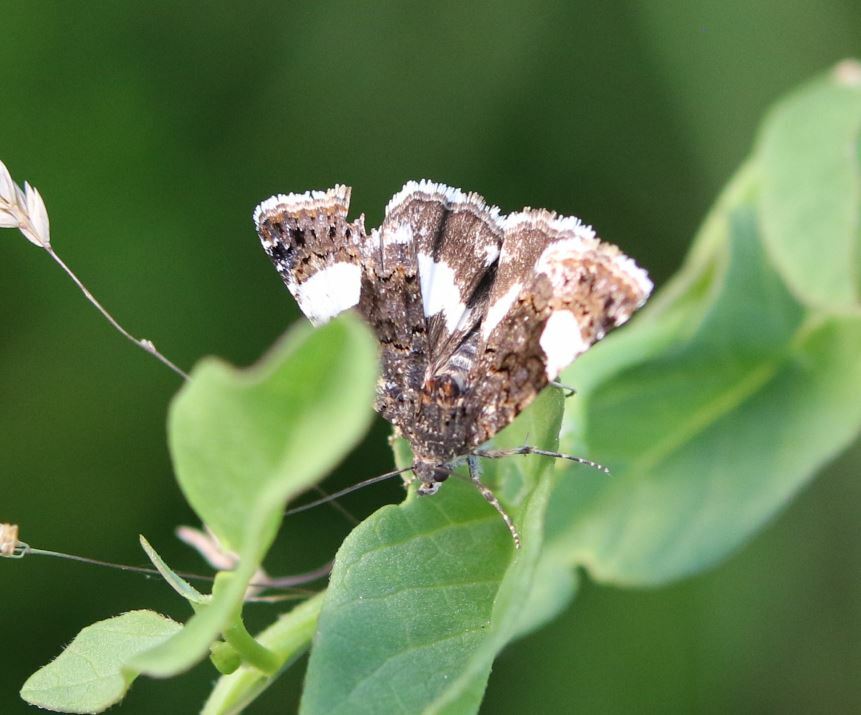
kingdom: Animalia
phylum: Arthropoda
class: Insecta
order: Lepidoptera
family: Erebidae
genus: Tyta
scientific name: Tyta luctuosa
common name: Four-spotted
